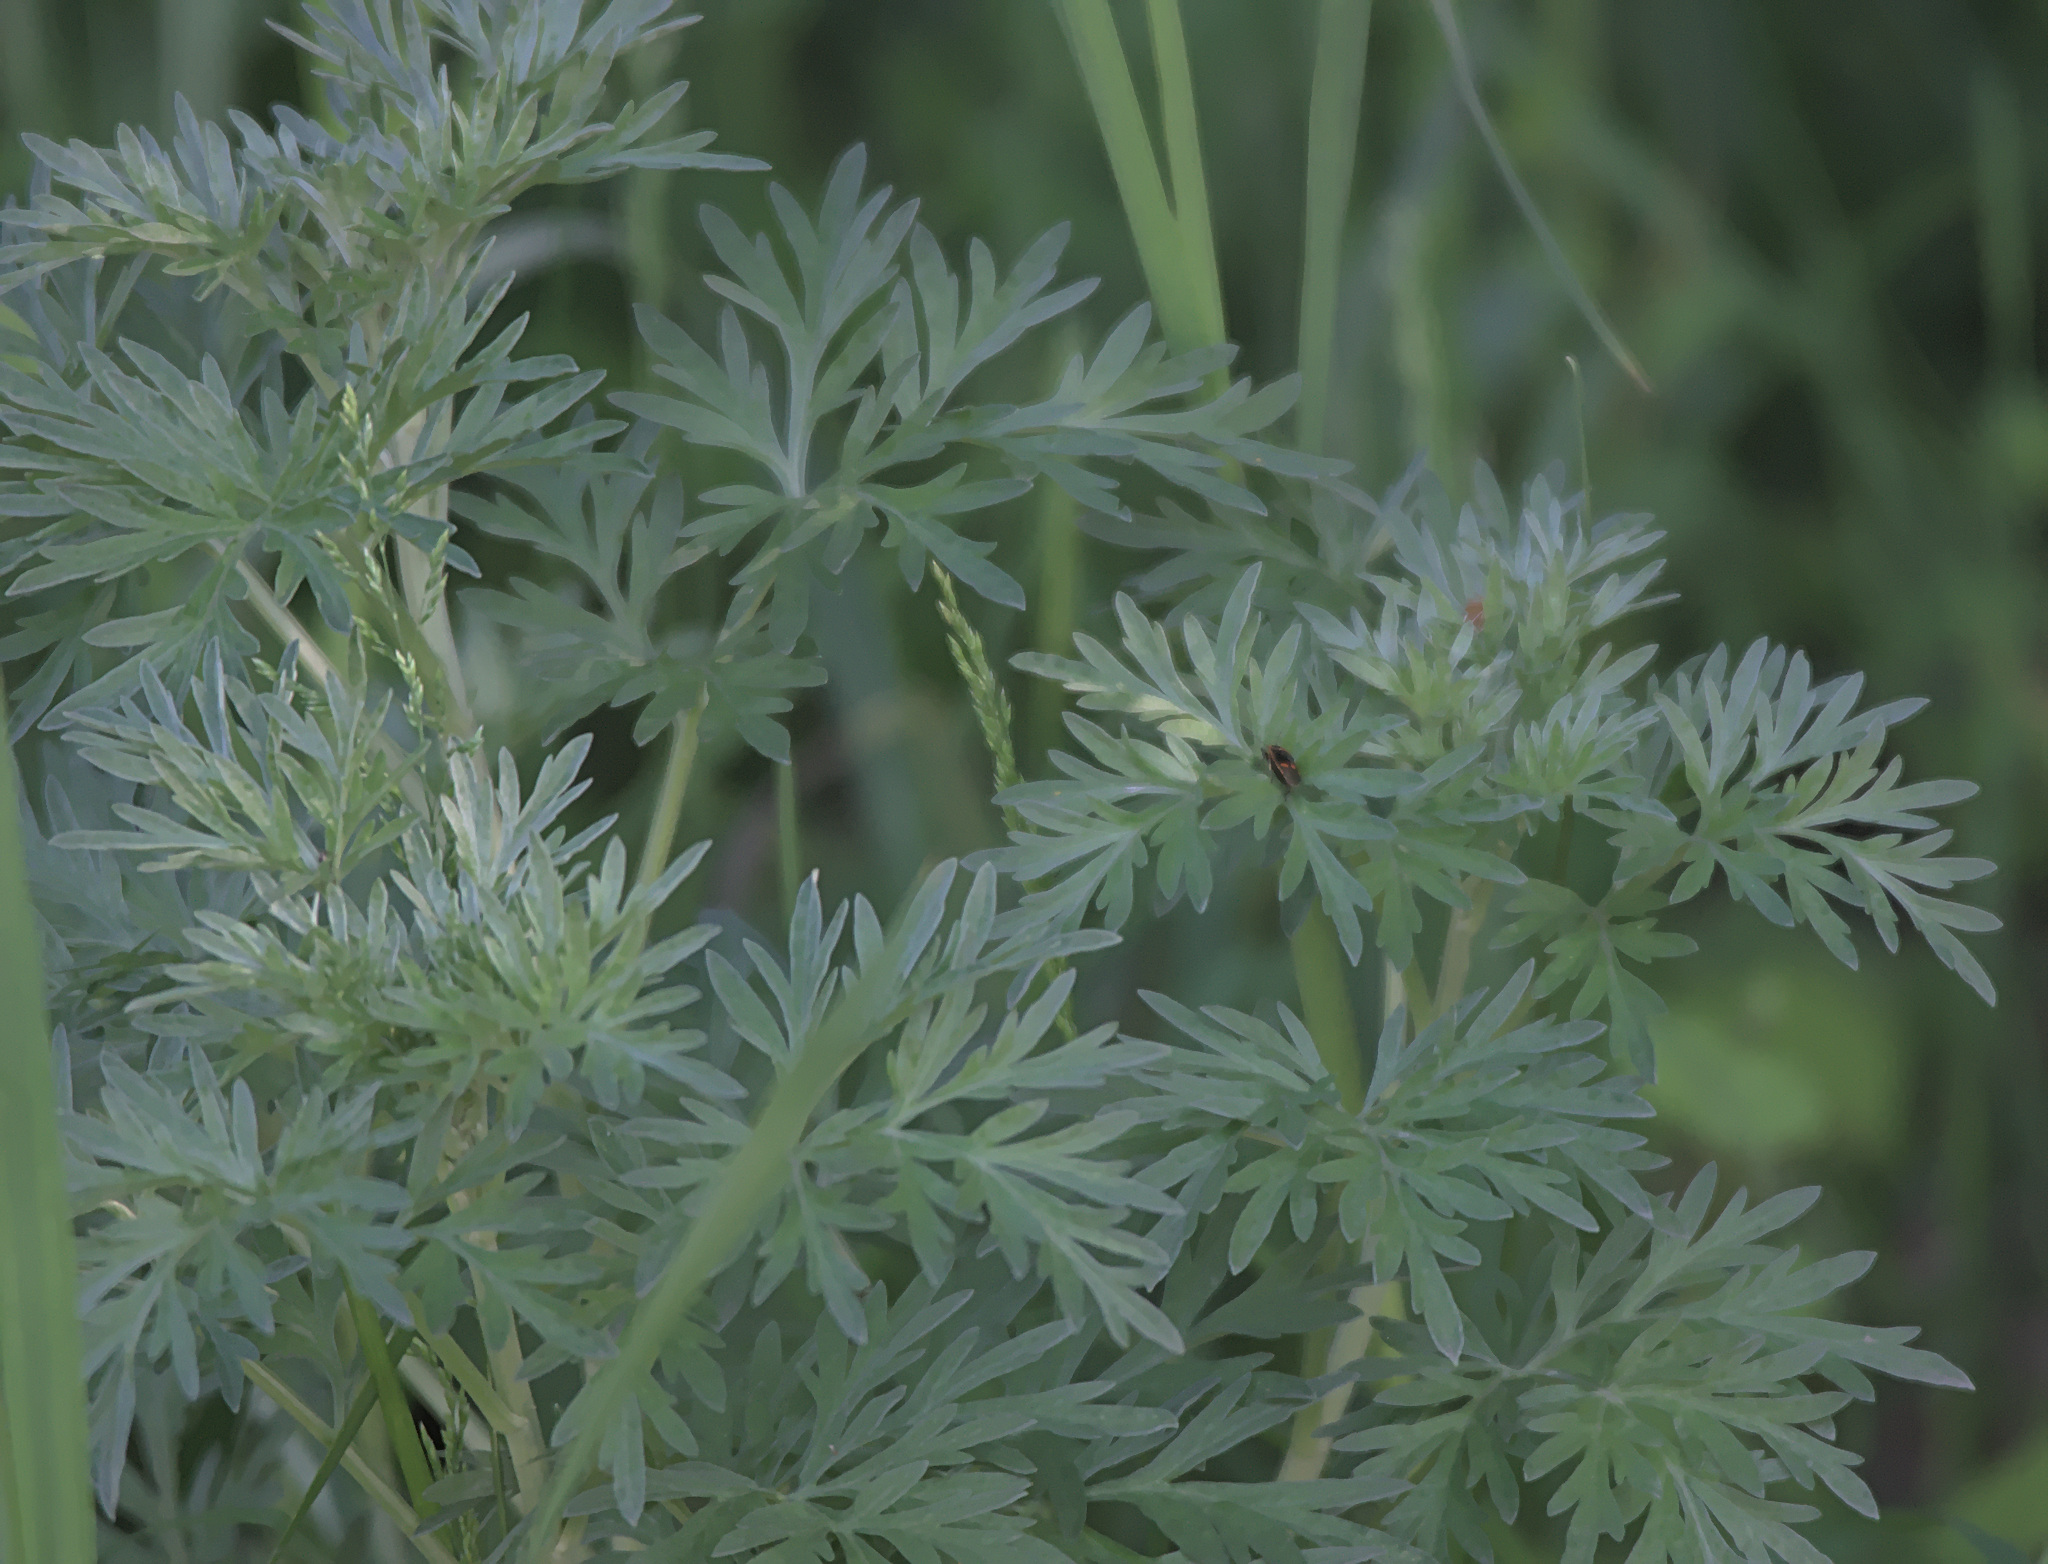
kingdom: Plantae
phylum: Tracheophyta
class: Magnoliopsida
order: Asterales
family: Asteraceae
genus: Artemisia
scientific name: Artemisia vulgaris
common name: Mugwort
